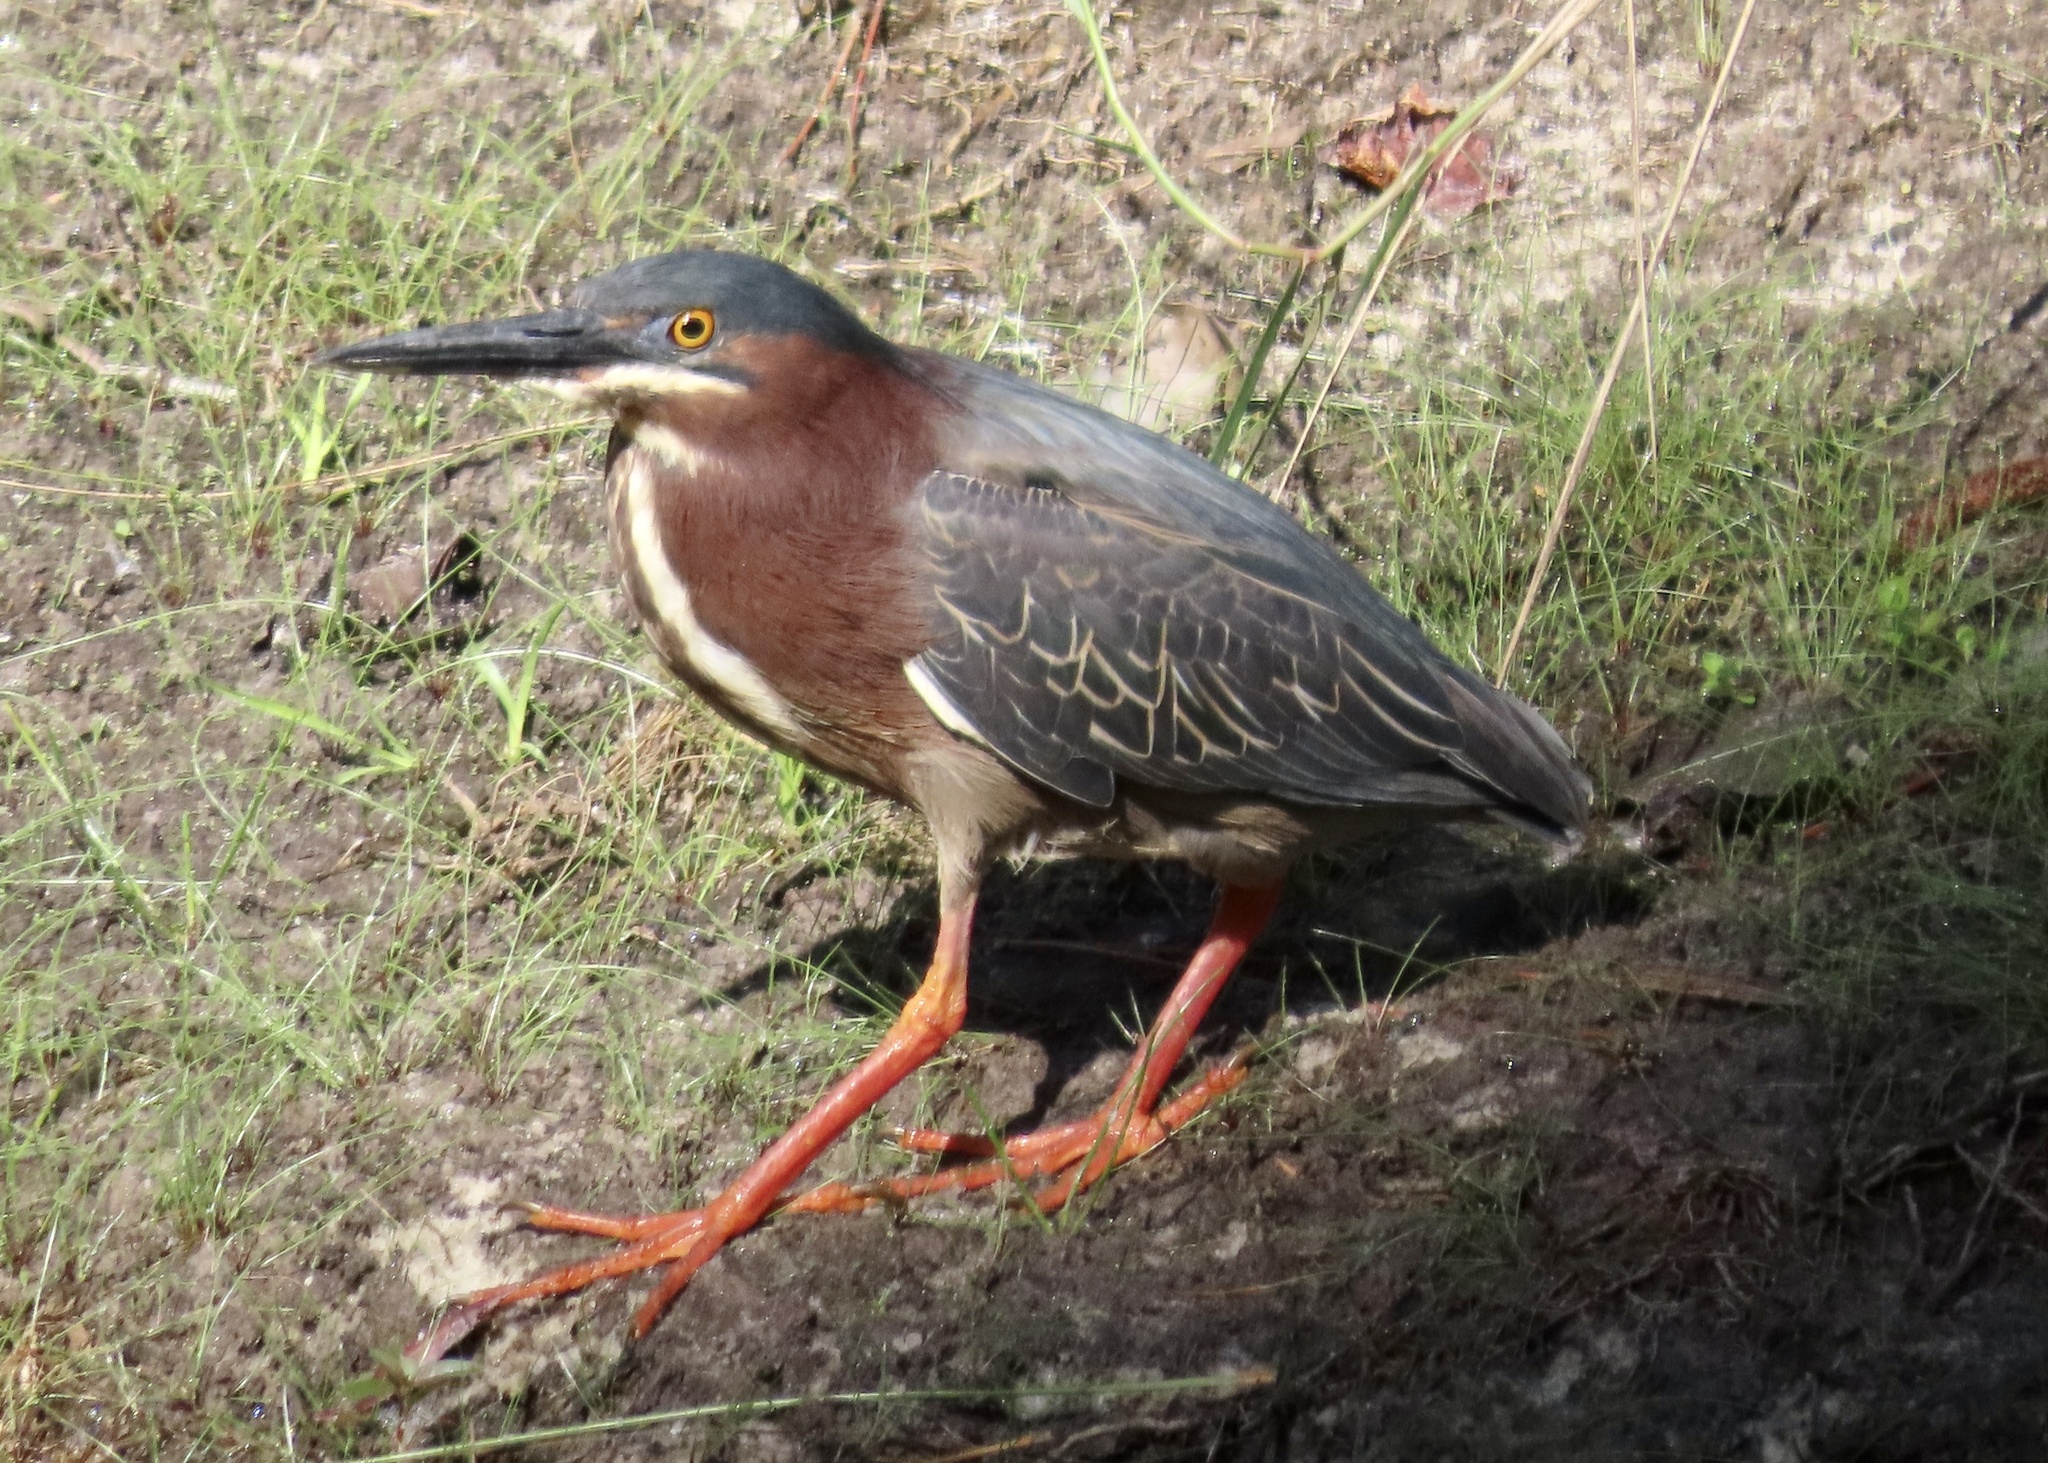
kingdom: Animalia
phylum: Chordata
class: Aves
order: Pelecaniformes
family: Ardeidae
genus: Butorides
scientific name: Butorides virescens
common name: Green heron
